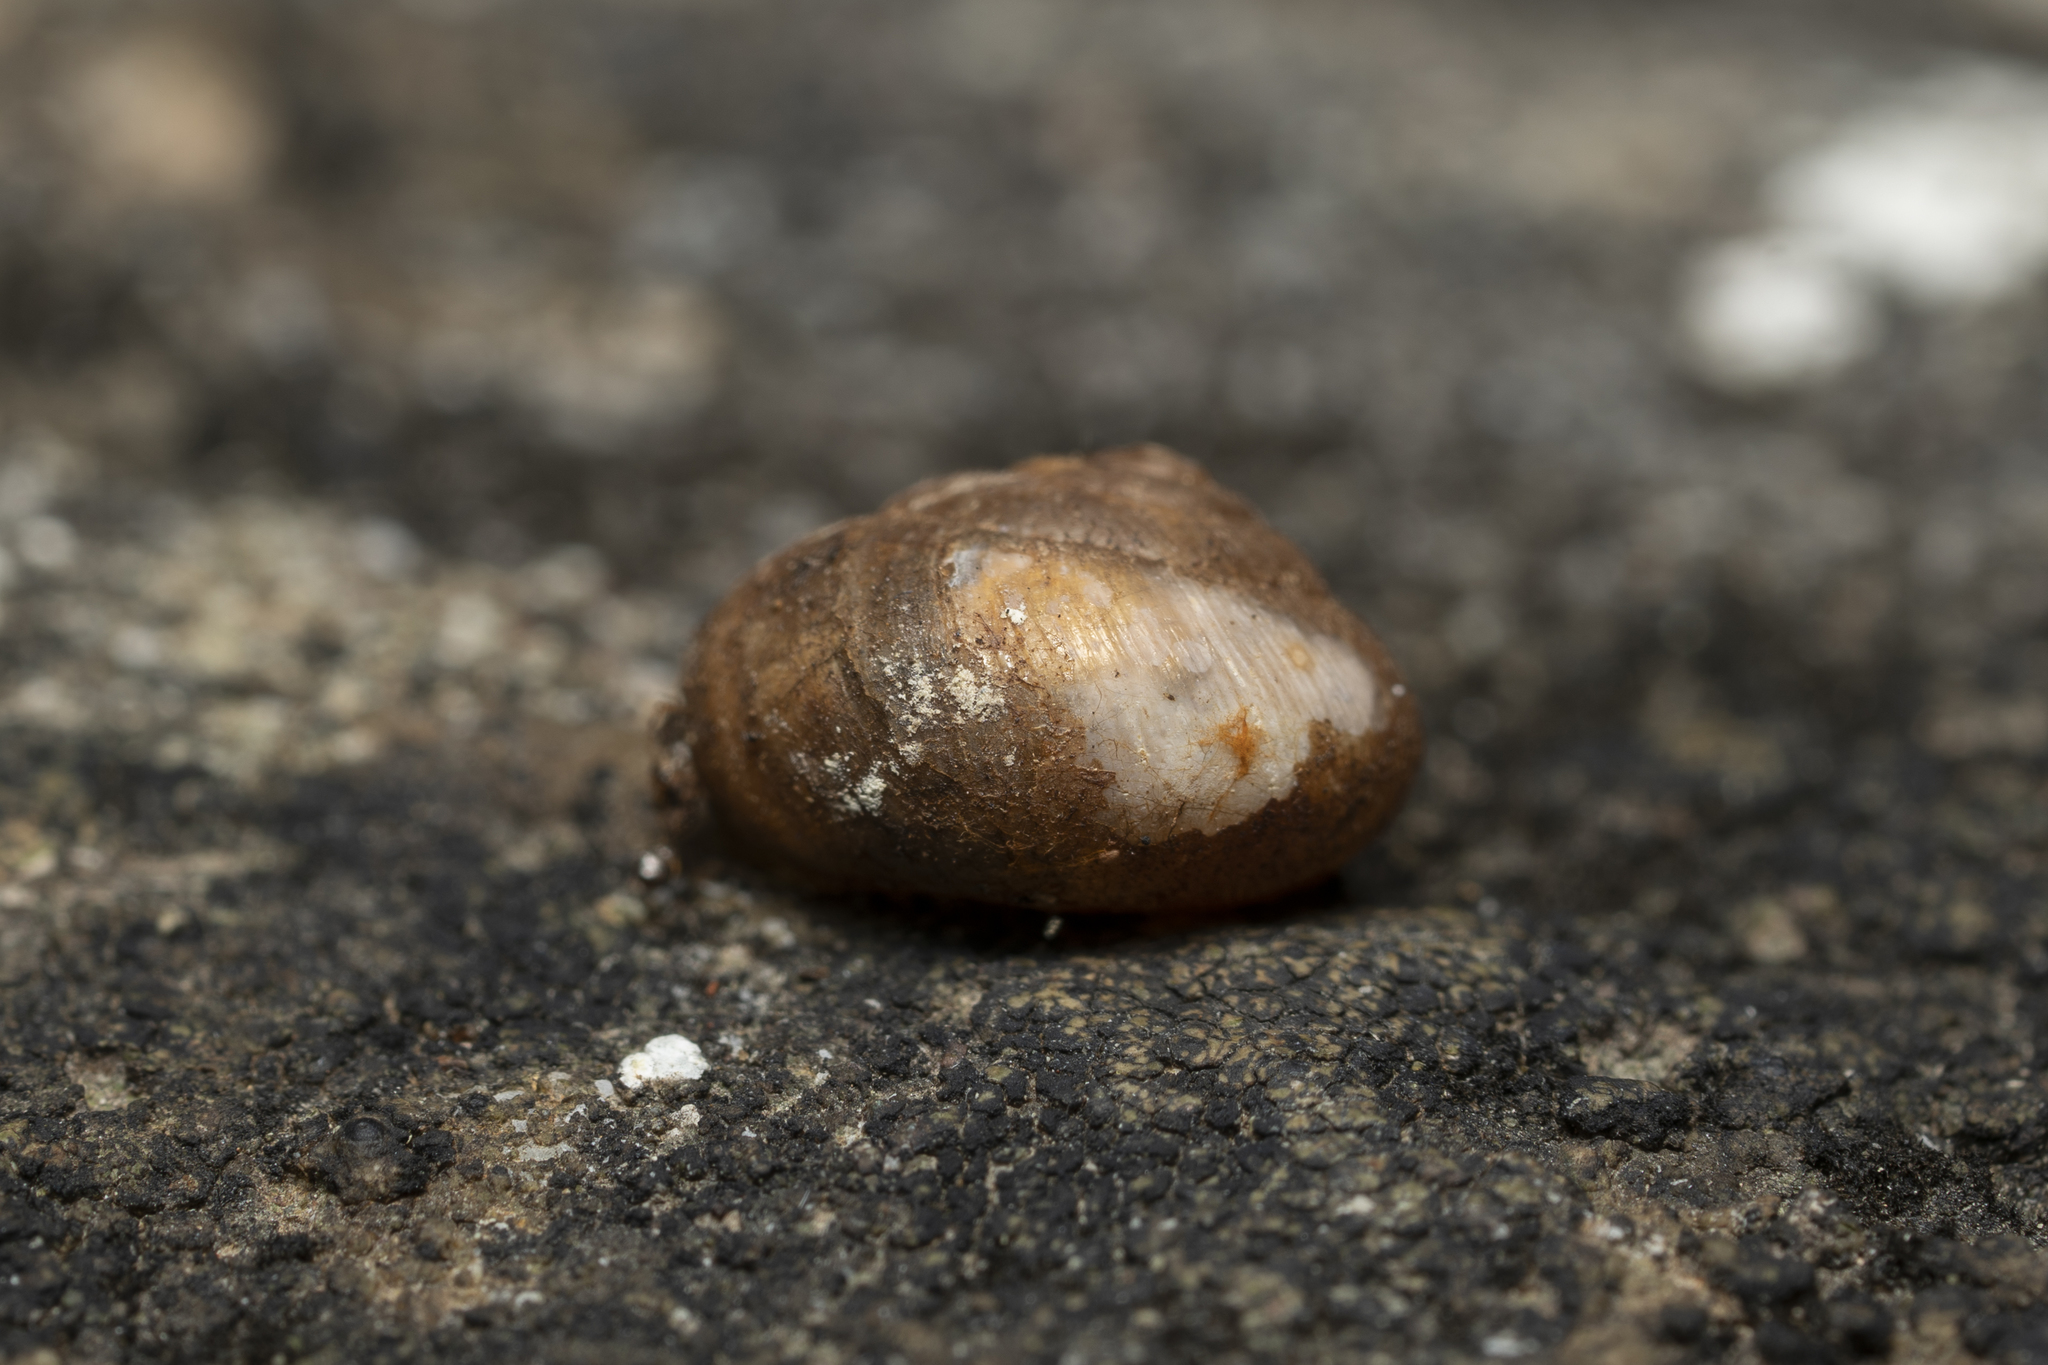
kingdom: Animalia
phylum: Mollusca
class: Gastropoda
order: Stylommatophora
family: Hygromiidae
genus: Metafruticicola
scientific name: Metafruticicola nicosiana
